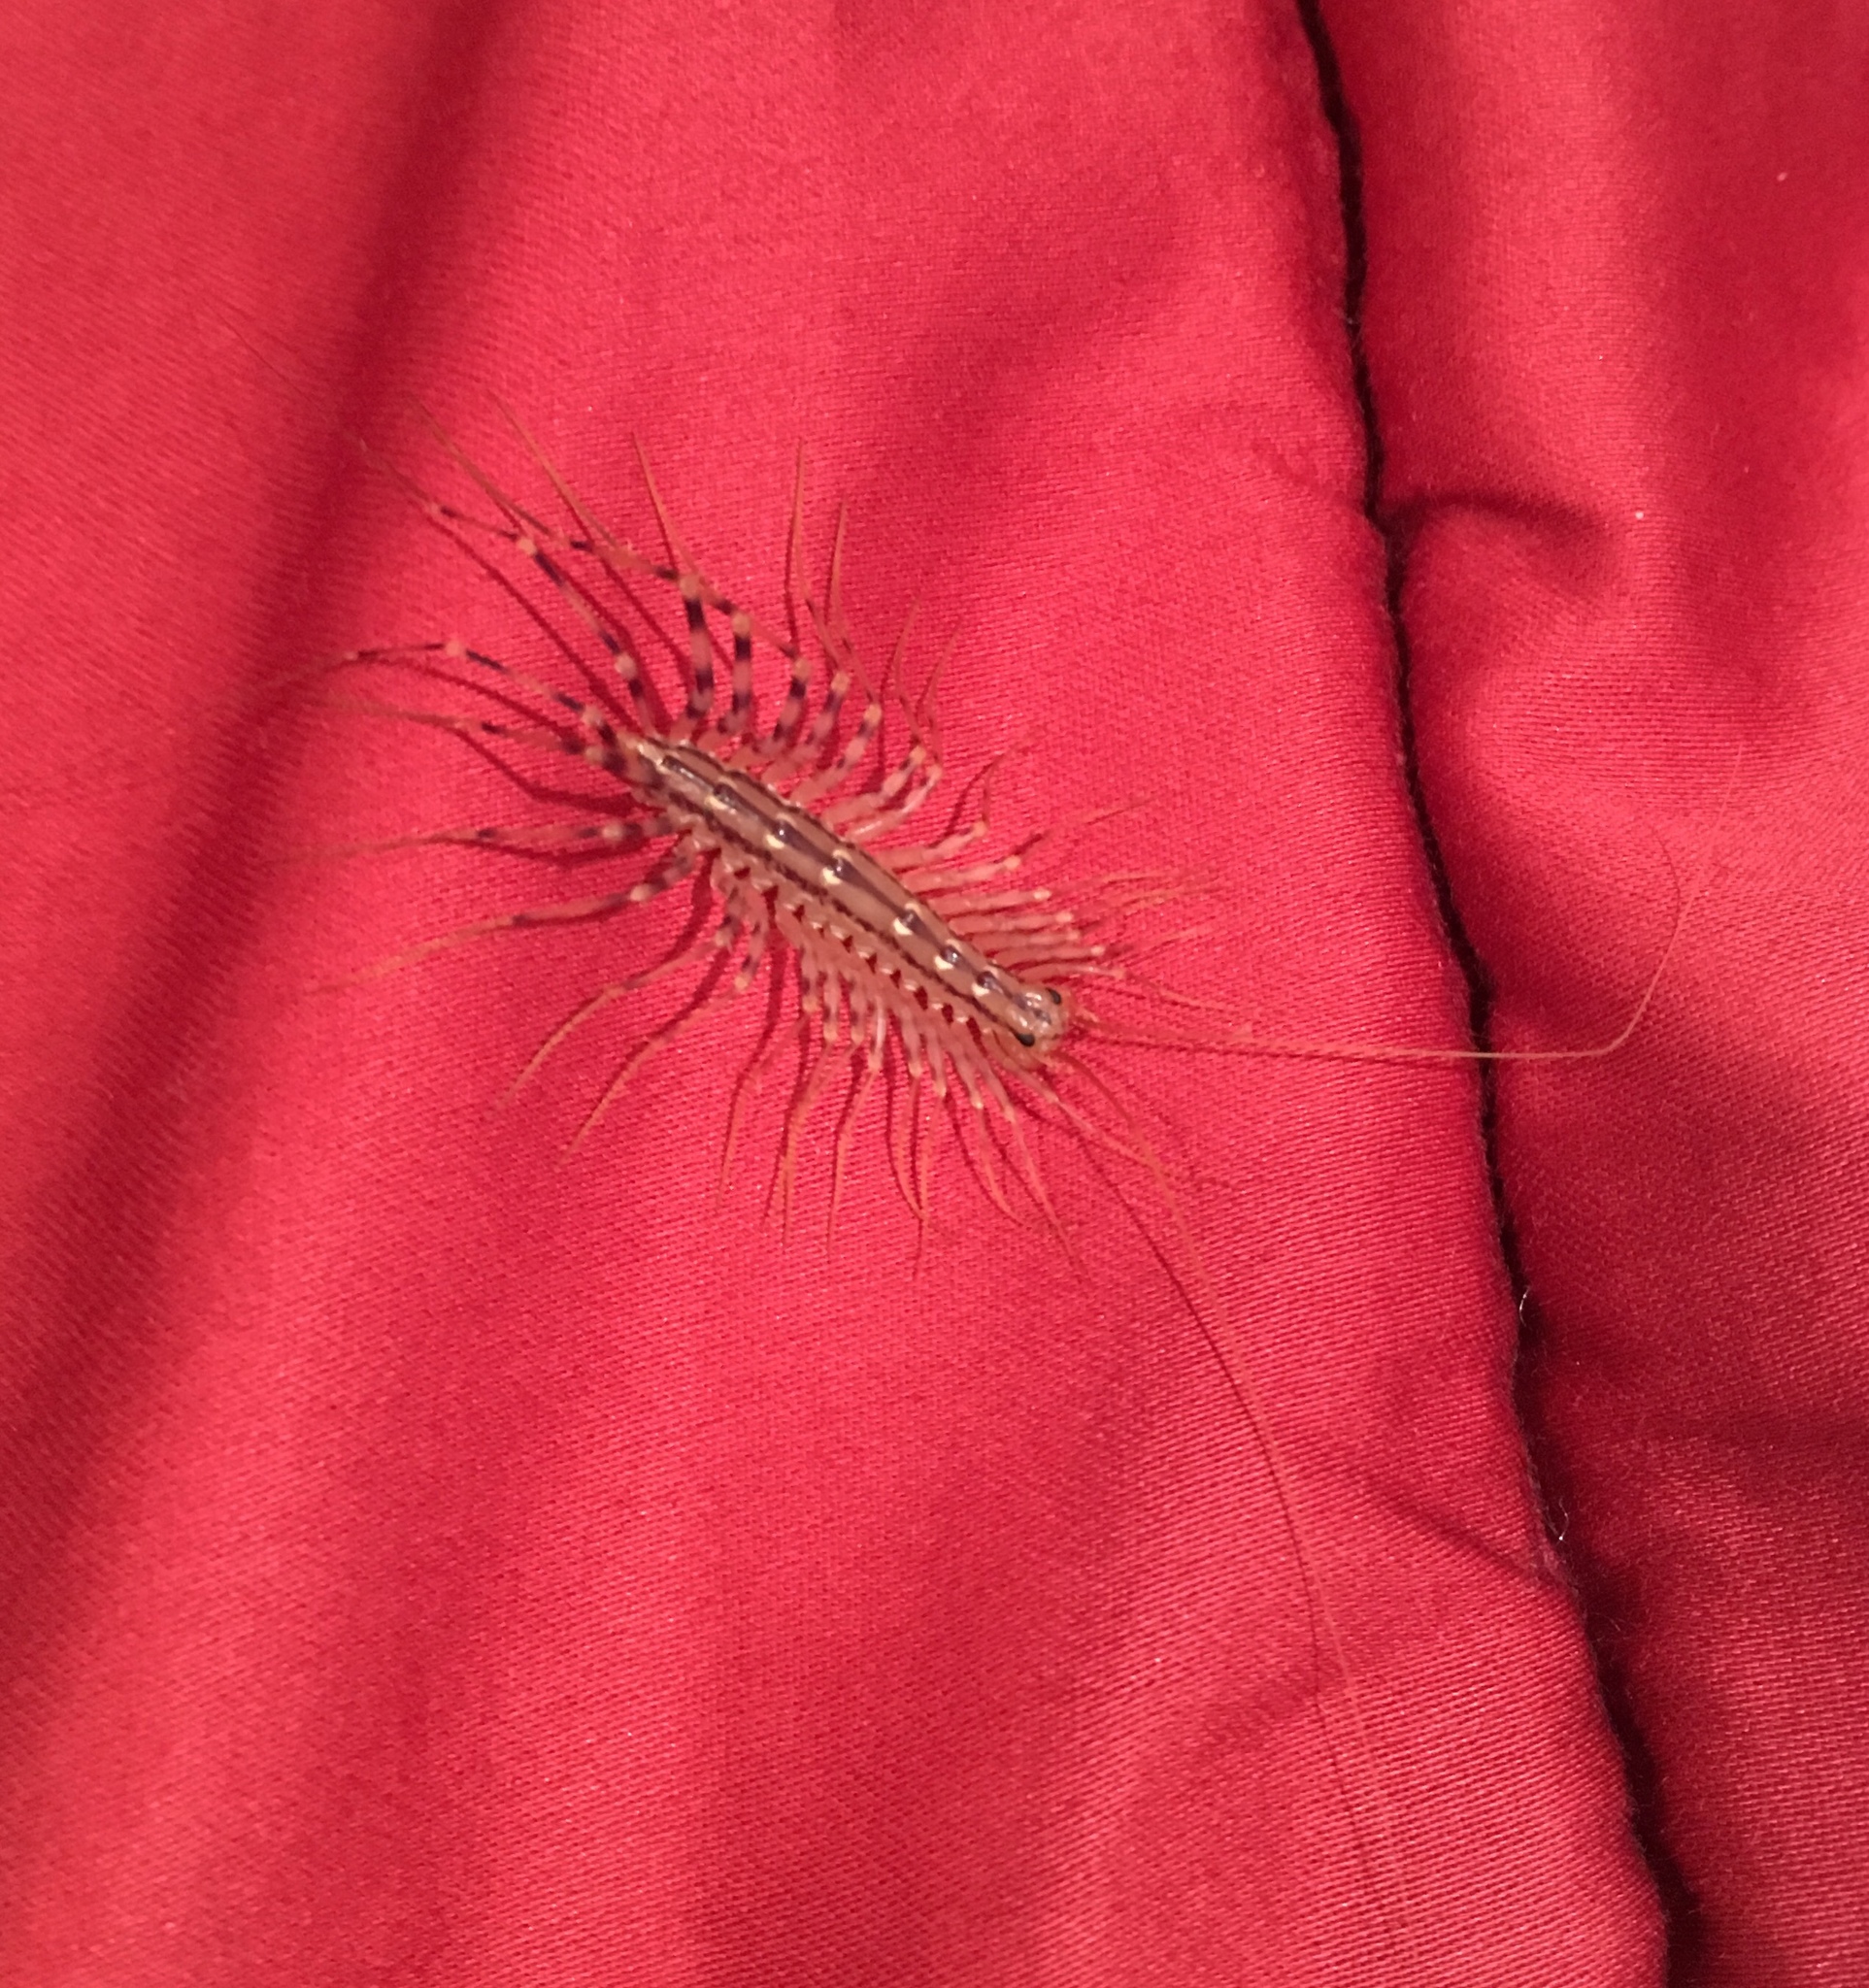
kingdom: Animalia
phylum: Arthropoda
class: Chilopoda
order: Scutigeromorpha
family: Scutigeridae
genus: Scutigera
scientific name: Scutigera coleoptrata
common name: House centipede
